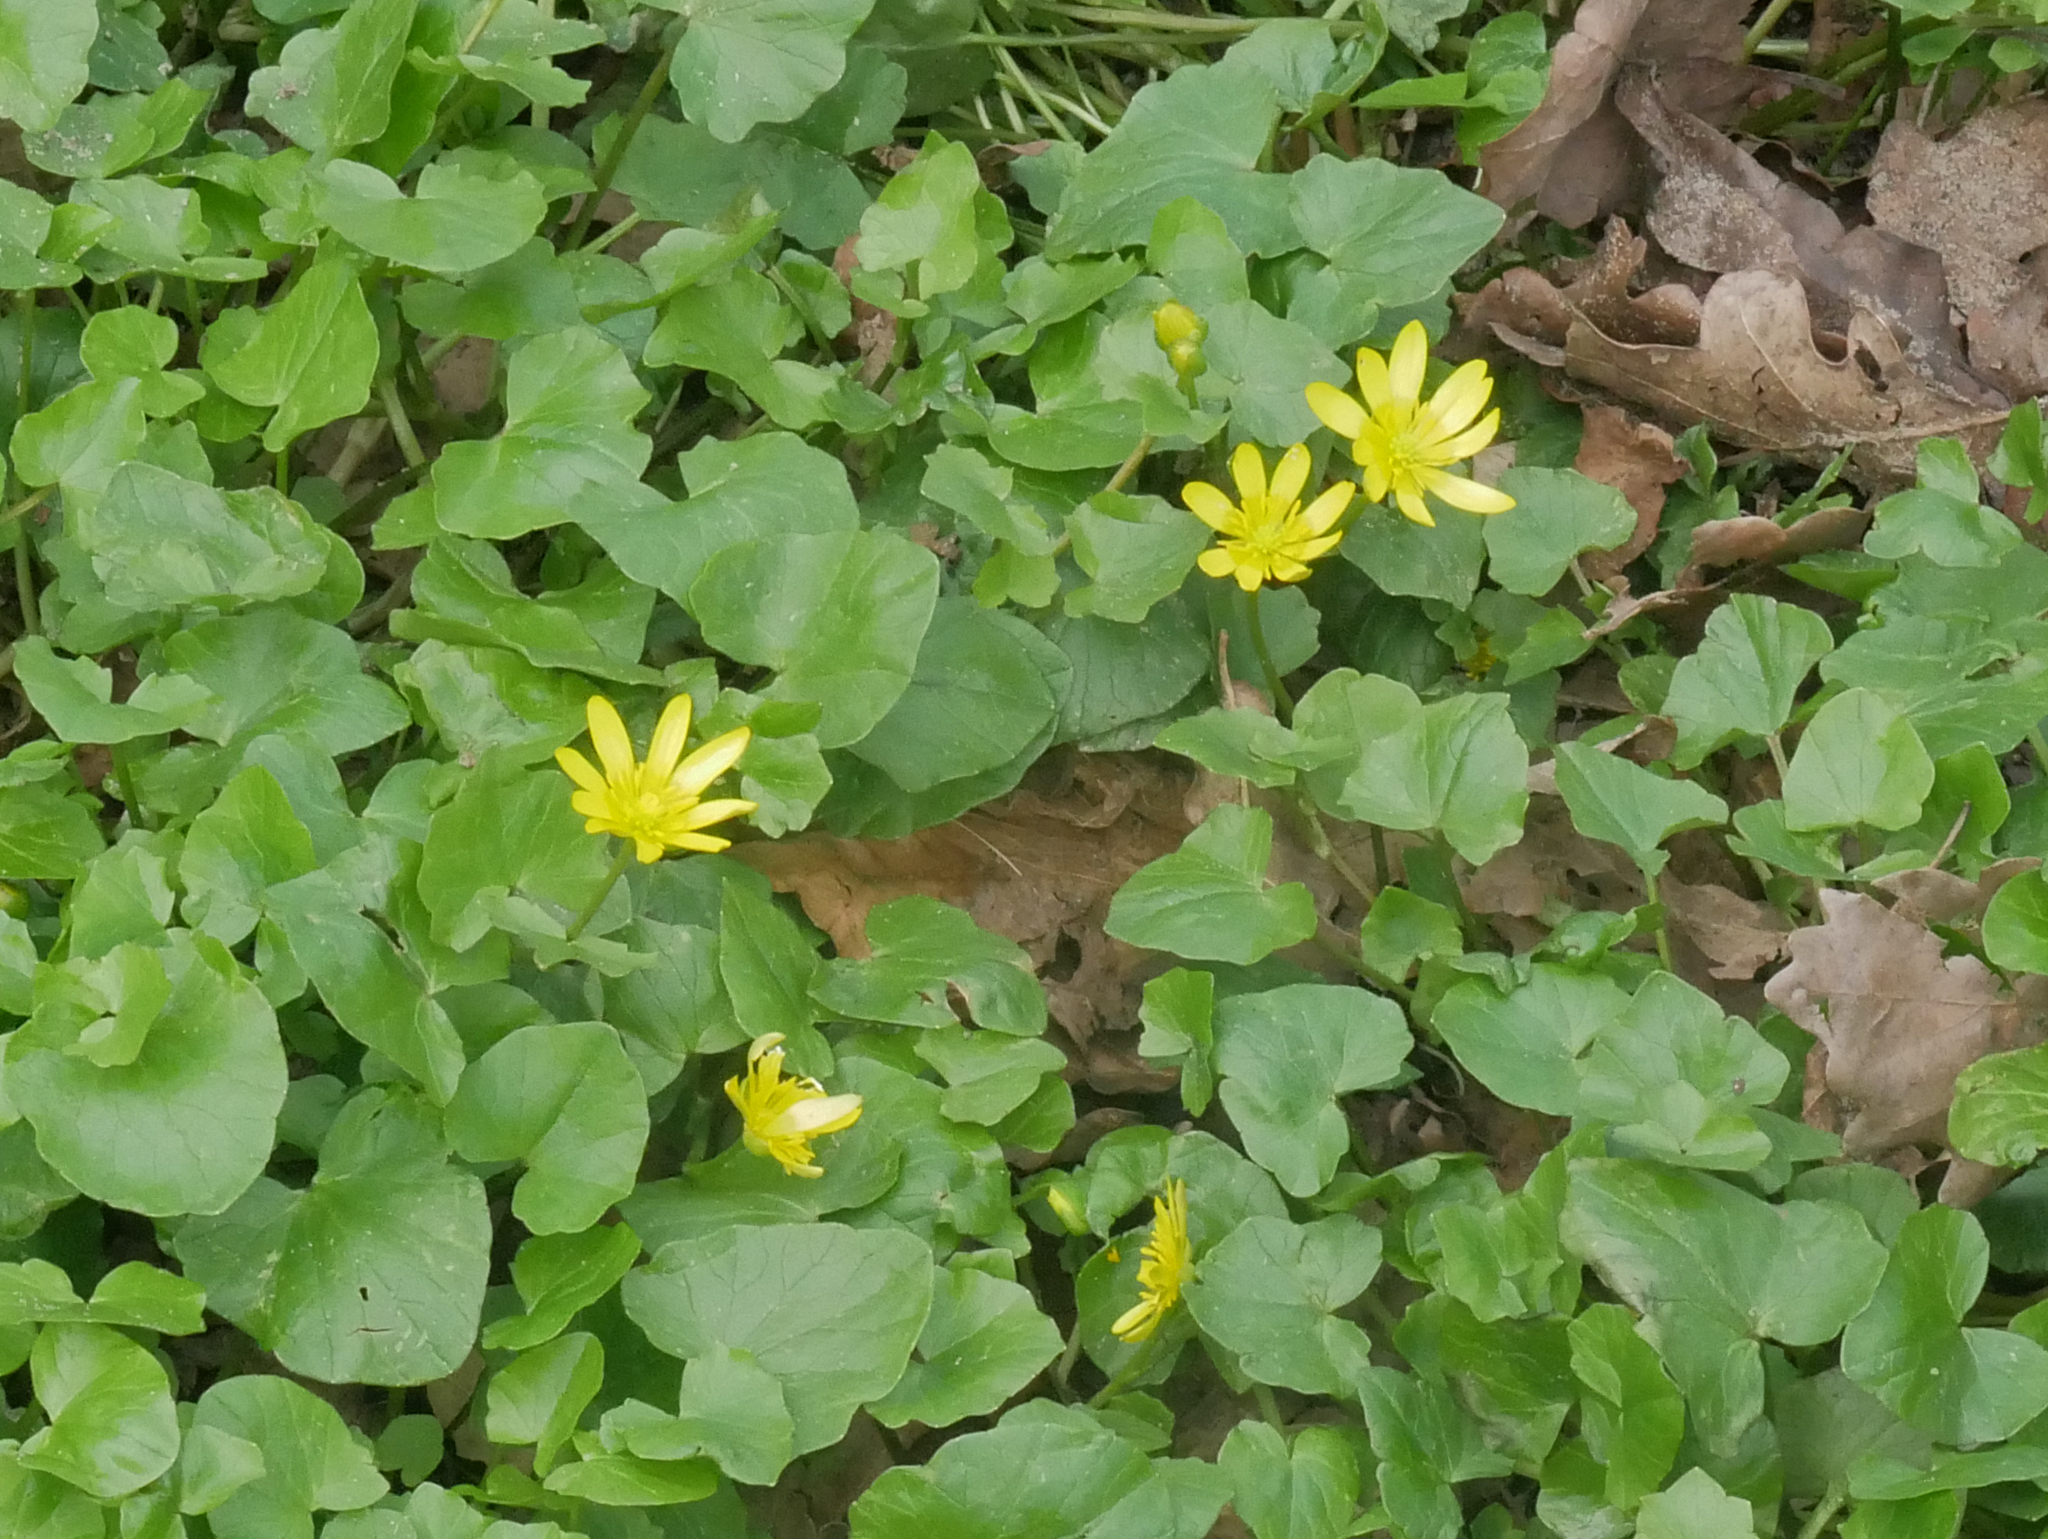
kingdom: Plantae
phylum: Tracheophyta
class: Magnoliopsida
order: Ranunculales
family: Ranunculaceae
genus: Ficaria
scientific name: Ficaria verna
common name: Lesser celandine
